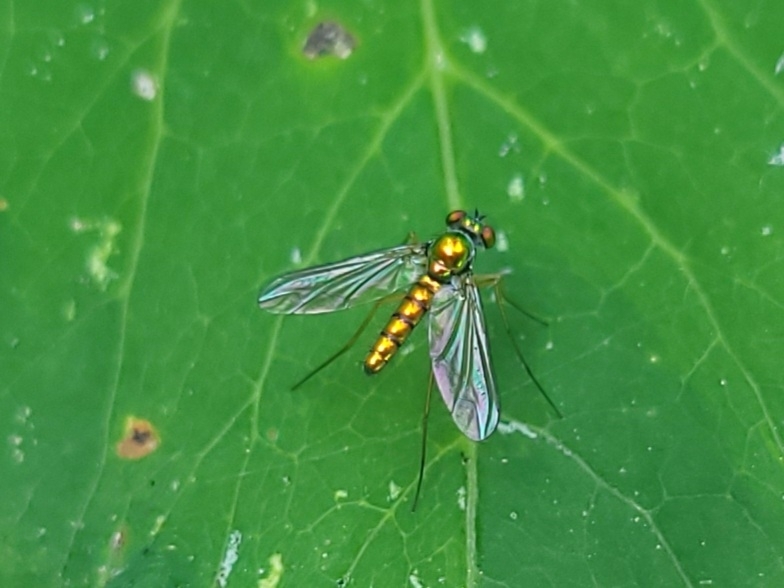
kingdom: Animalia
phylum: Arthropoda
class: Insecta
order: Diptera
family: Dolichopodidae
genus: Amblypsilopus
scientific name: Amblypsilopus scintillans
